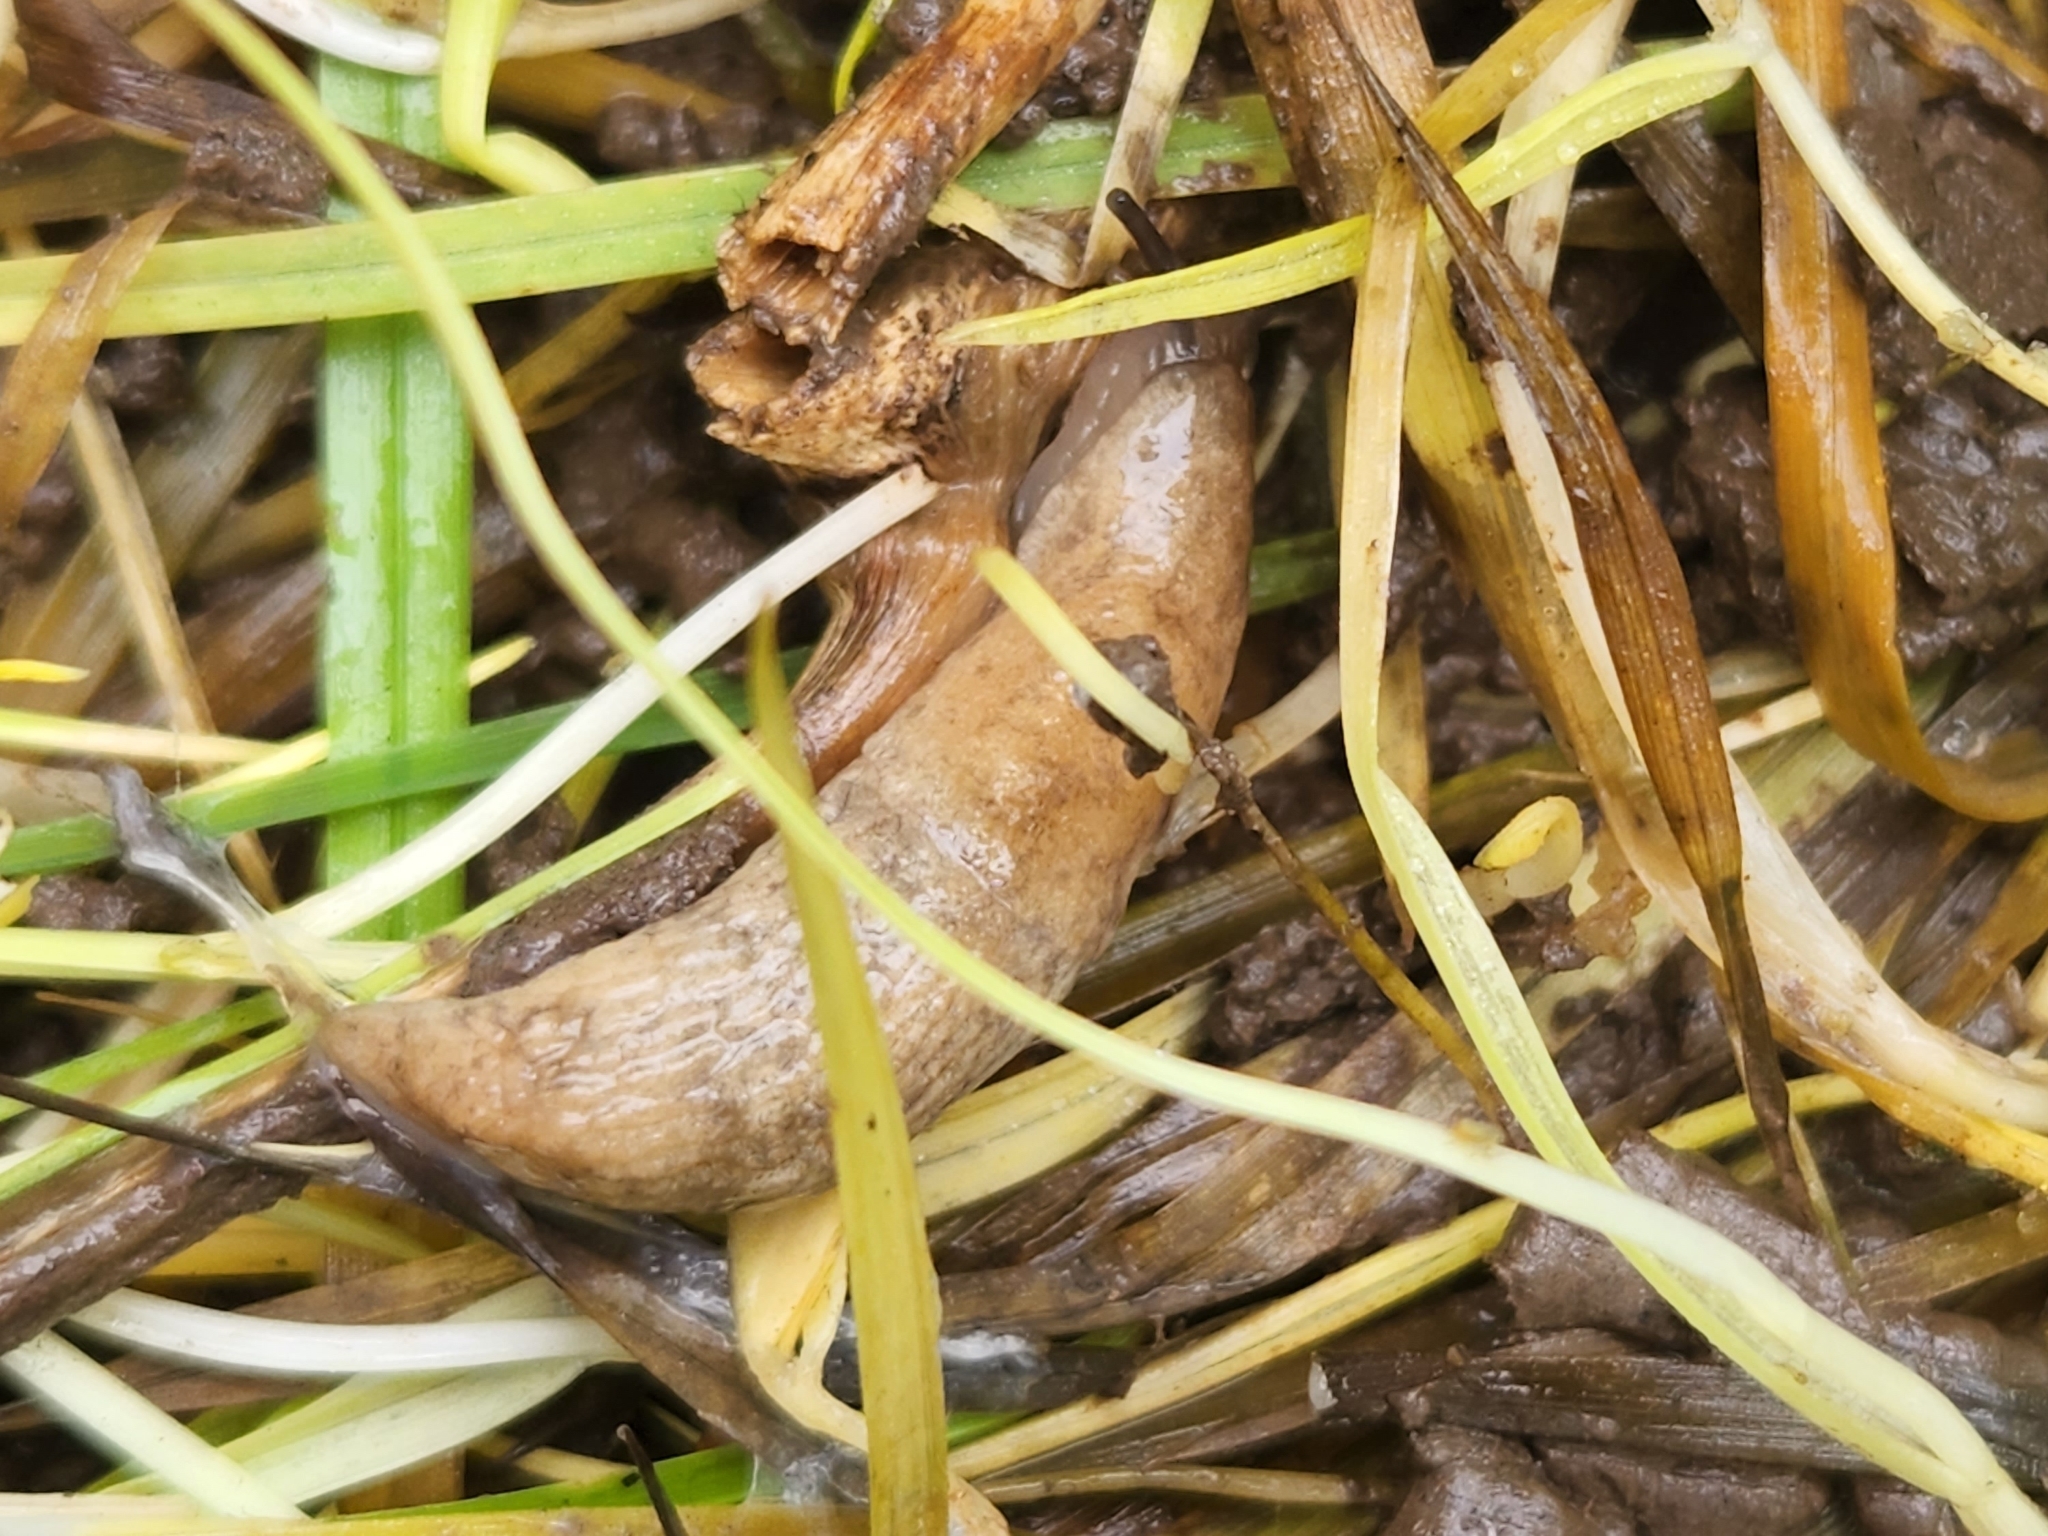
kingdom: Animalia
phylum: Mollusca
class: Gastropoda
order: Stylommatophora
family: Agriolimacidae
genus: Deroceras
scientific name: Deroceras reticulatum
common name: Gray field slug
